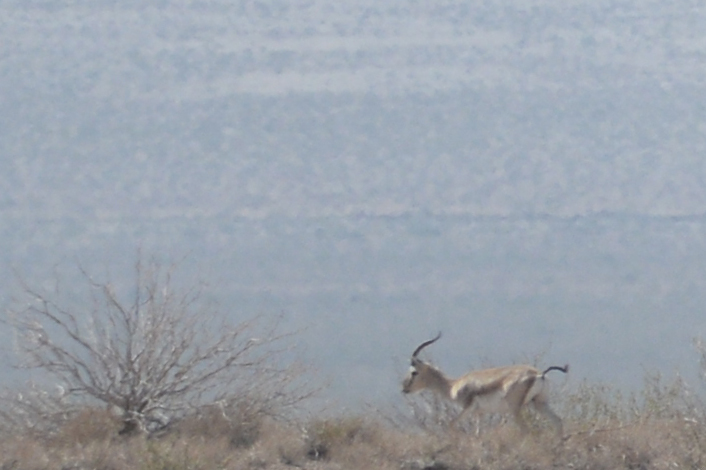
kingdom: Animalia
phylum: Chordata
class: Mammalia
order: Artiodactyla
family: Bovidae
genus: Gazella
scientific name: Gazella subgutturosa
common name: Goitered gazelle
